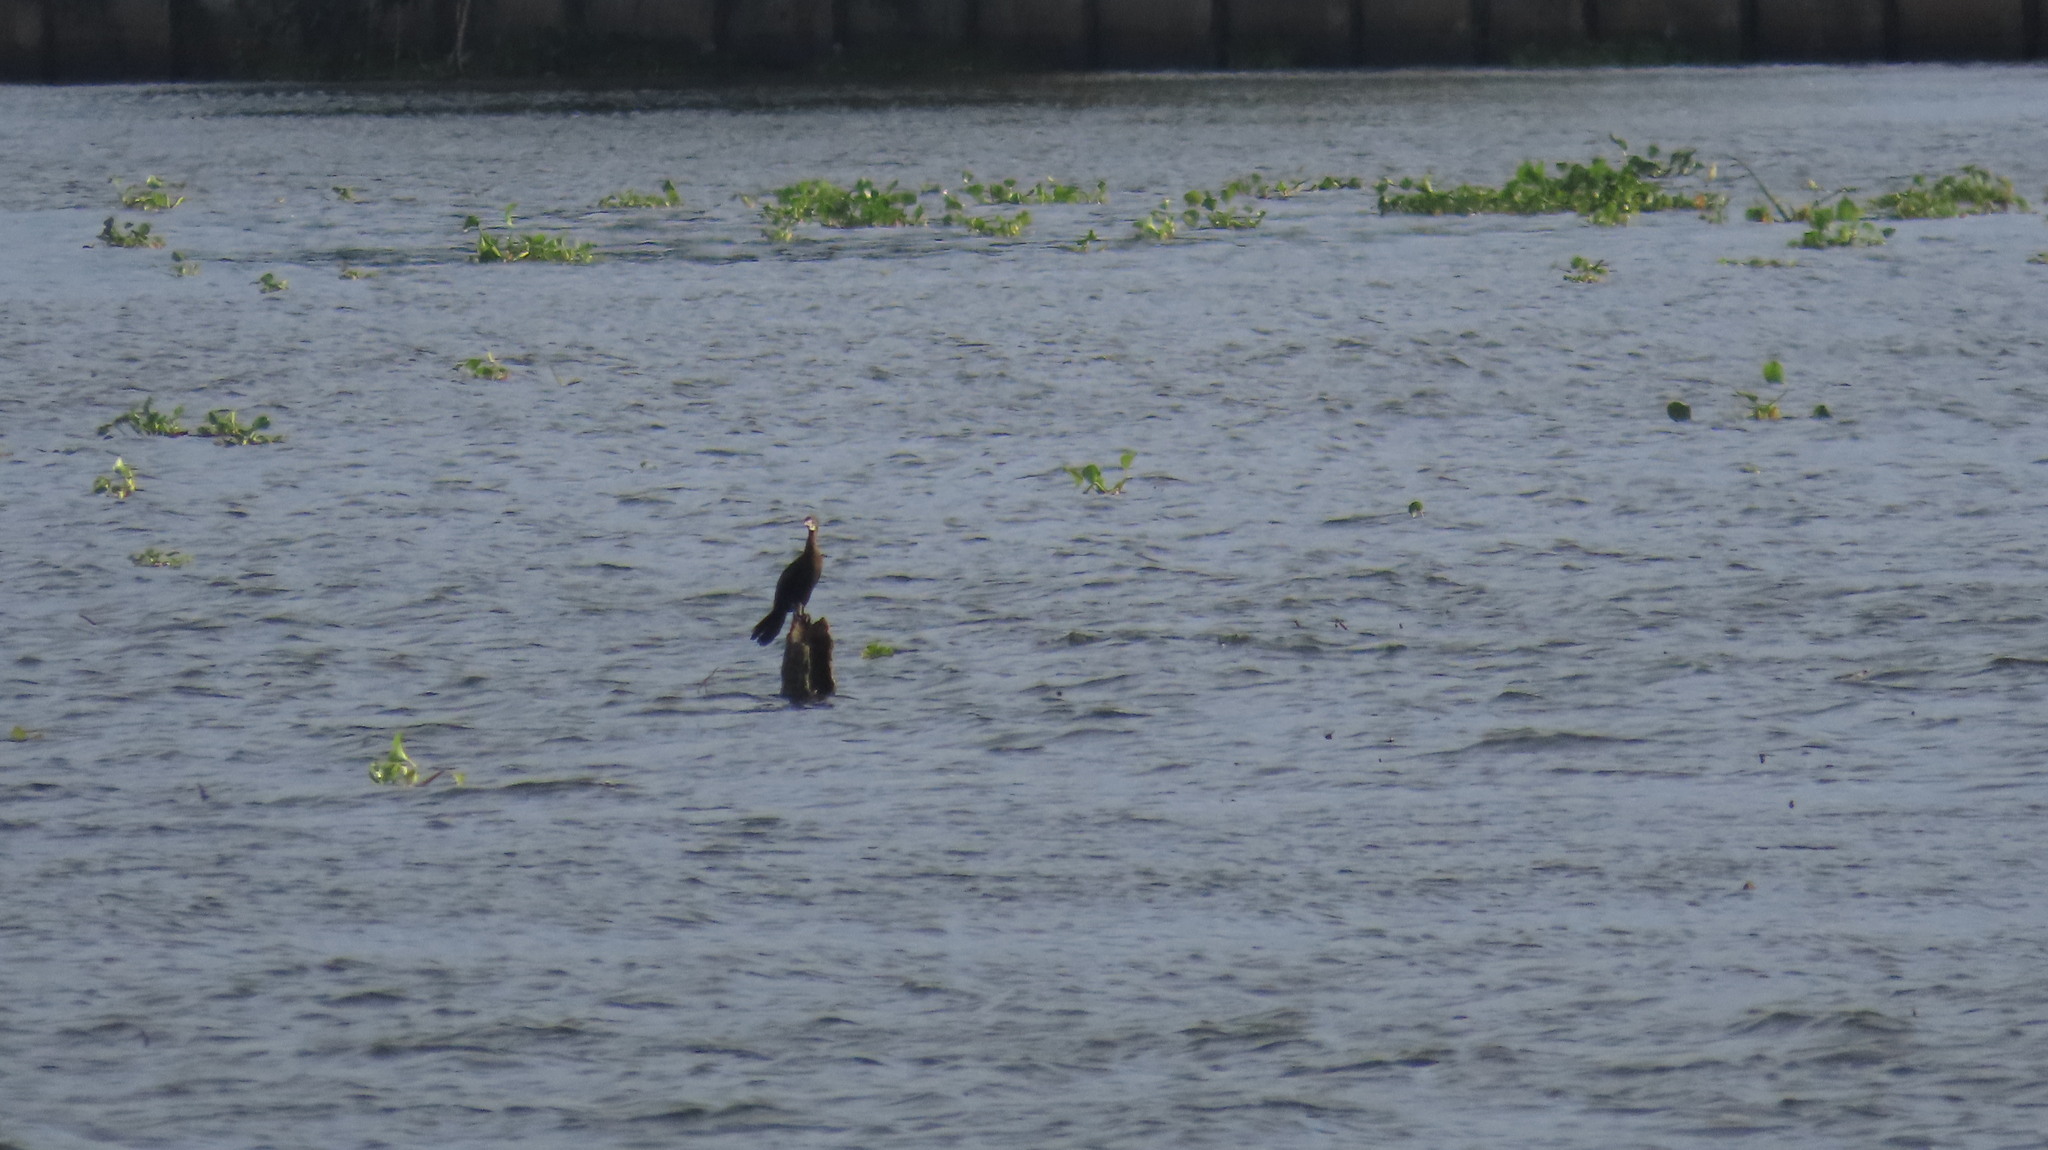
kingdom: Animalia
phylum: Chordata
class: Aves
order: Suliformes
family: Phalacrocoracidae
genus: Microcarbo
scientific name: Microcarbo niger
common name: Little cormorant
